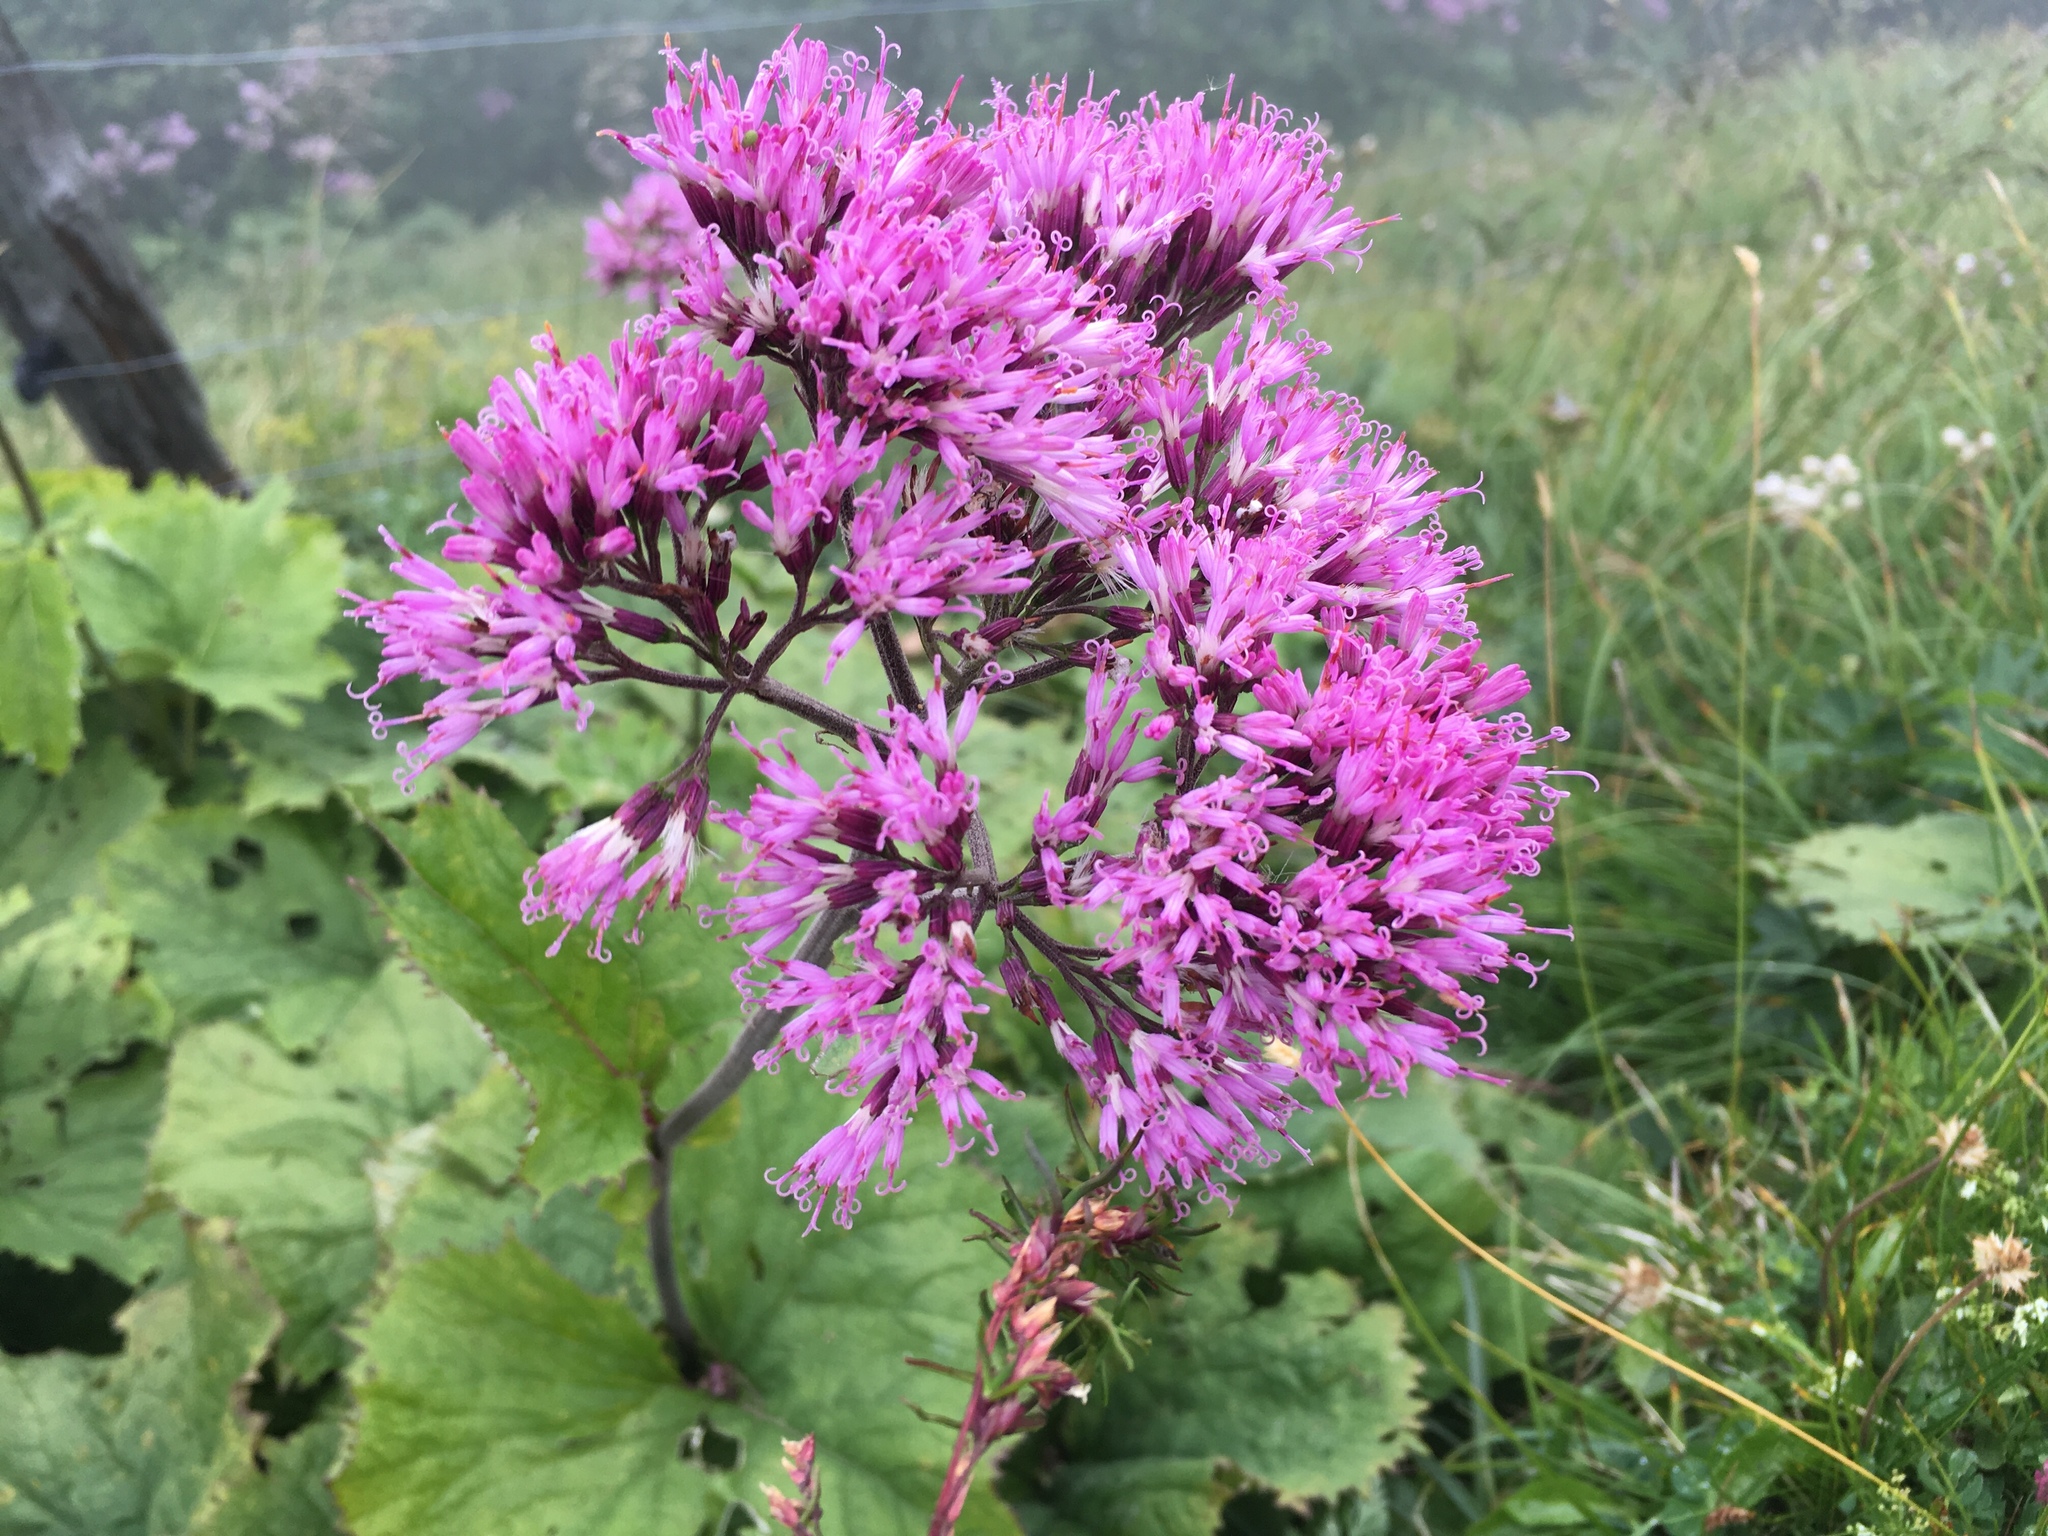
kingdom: Plantae
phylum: Tracheophyta
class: Magnoliopsida
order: Asterales
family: Asteraceae
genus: Adenostyles
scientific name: Adenostyles alliariae
